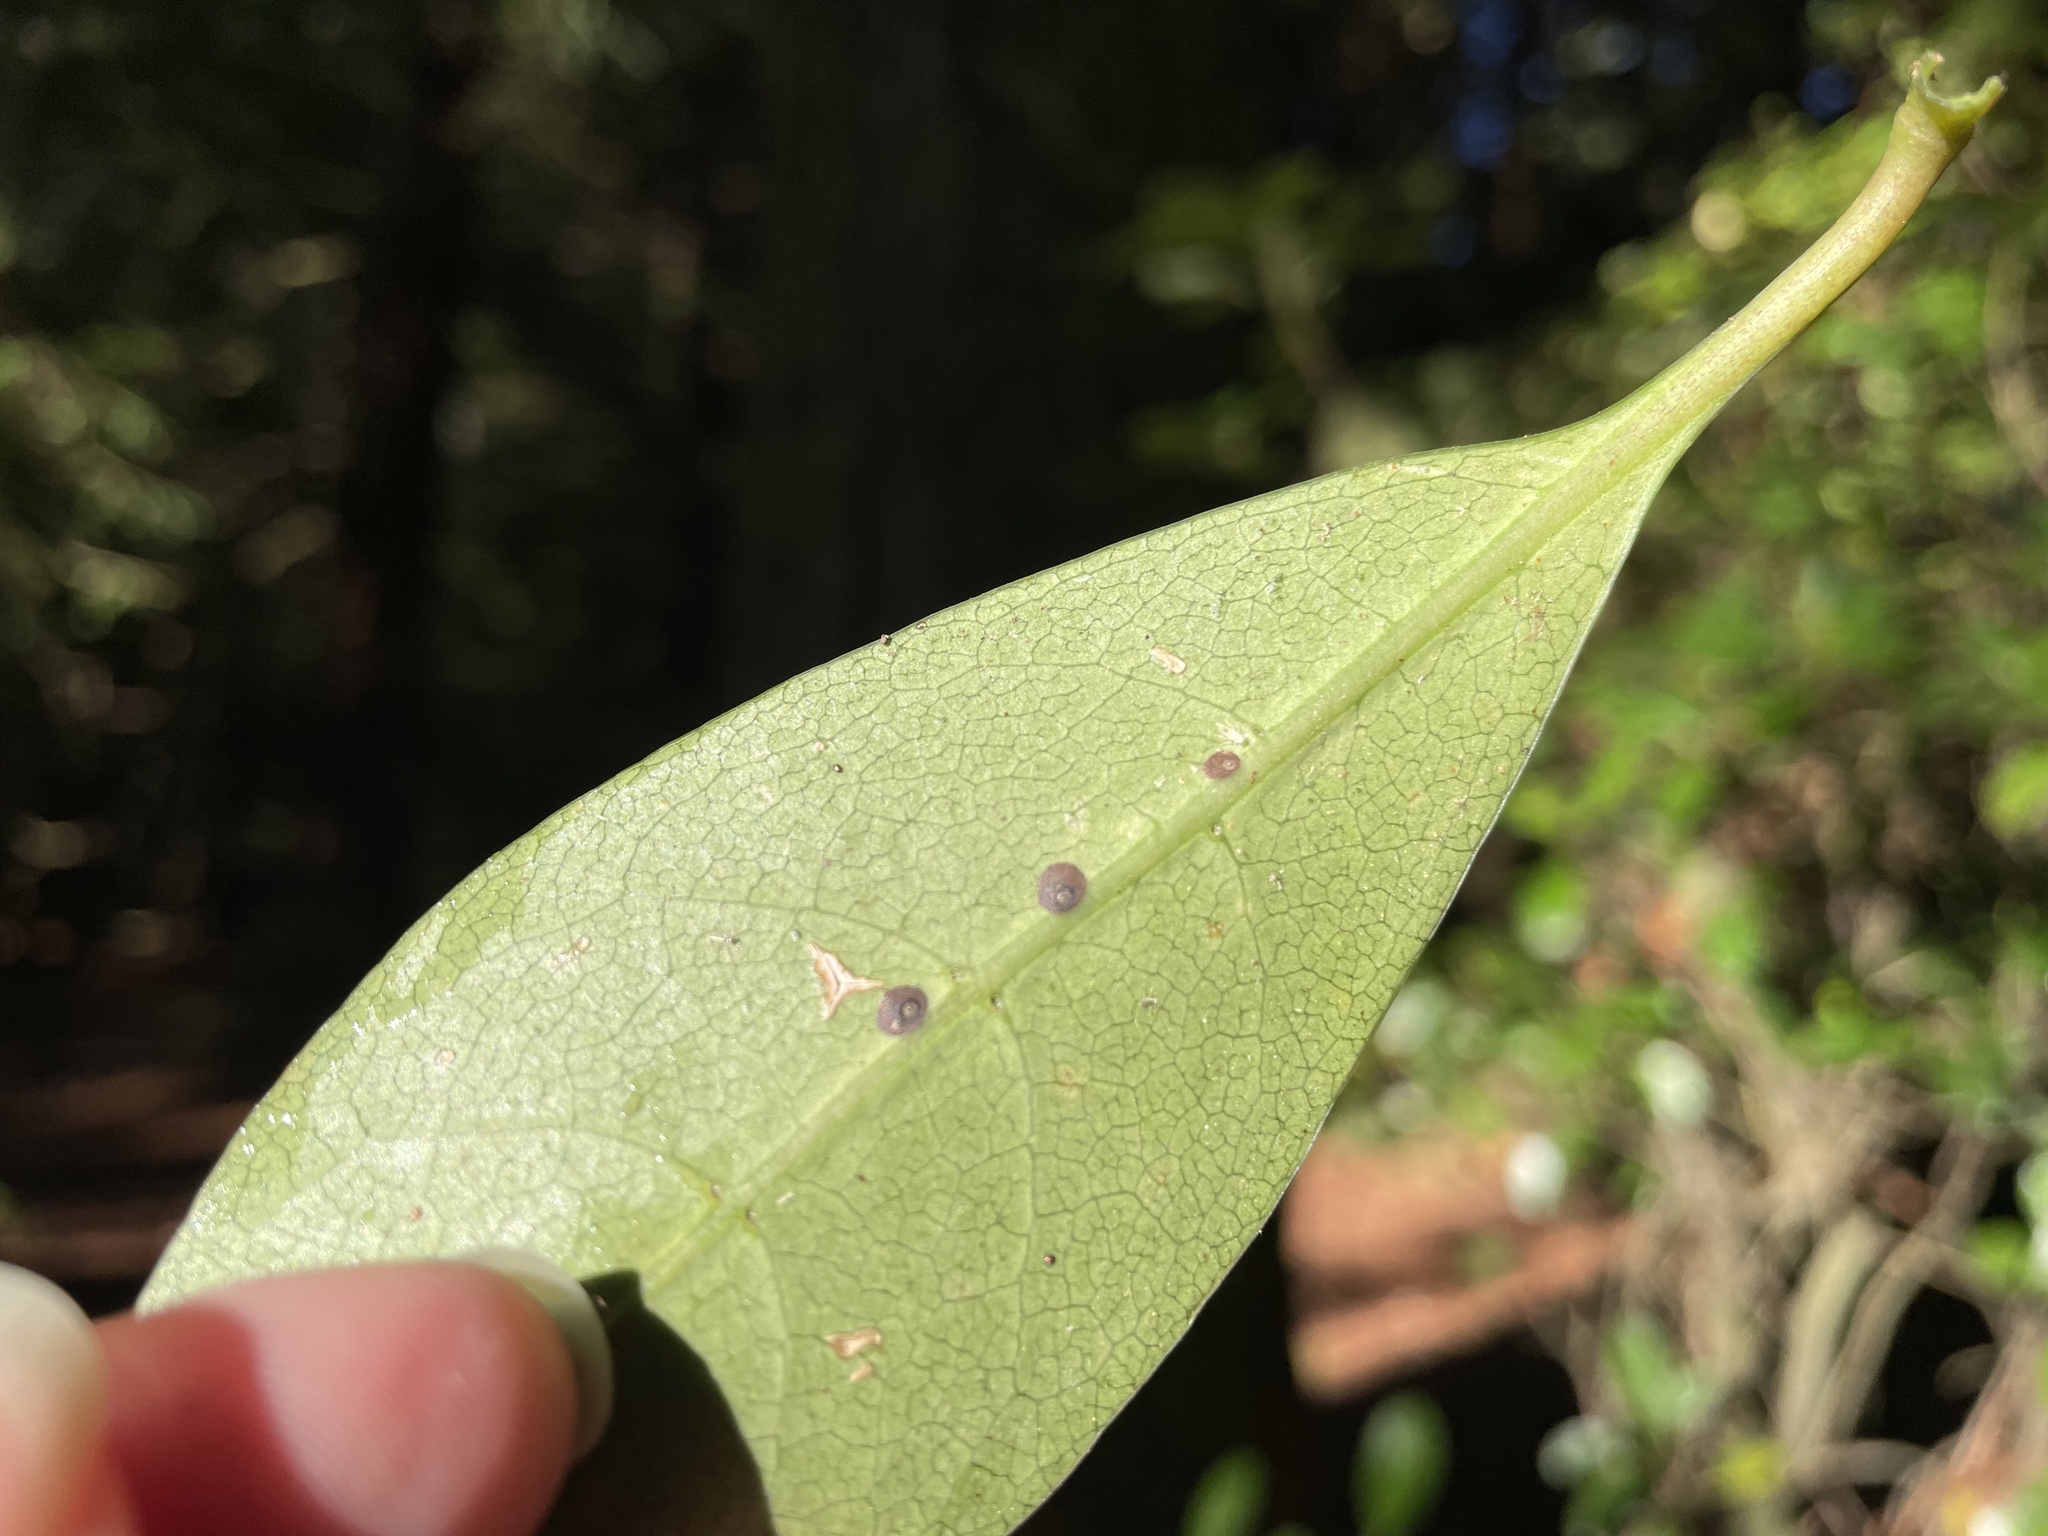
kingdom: Animalia
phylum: Arthropoda
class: Insecta
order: Hemiptera
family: Diaspididae
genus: Lindingaspis
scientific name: Lindingaspis rossi
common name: Araucaria black scale
